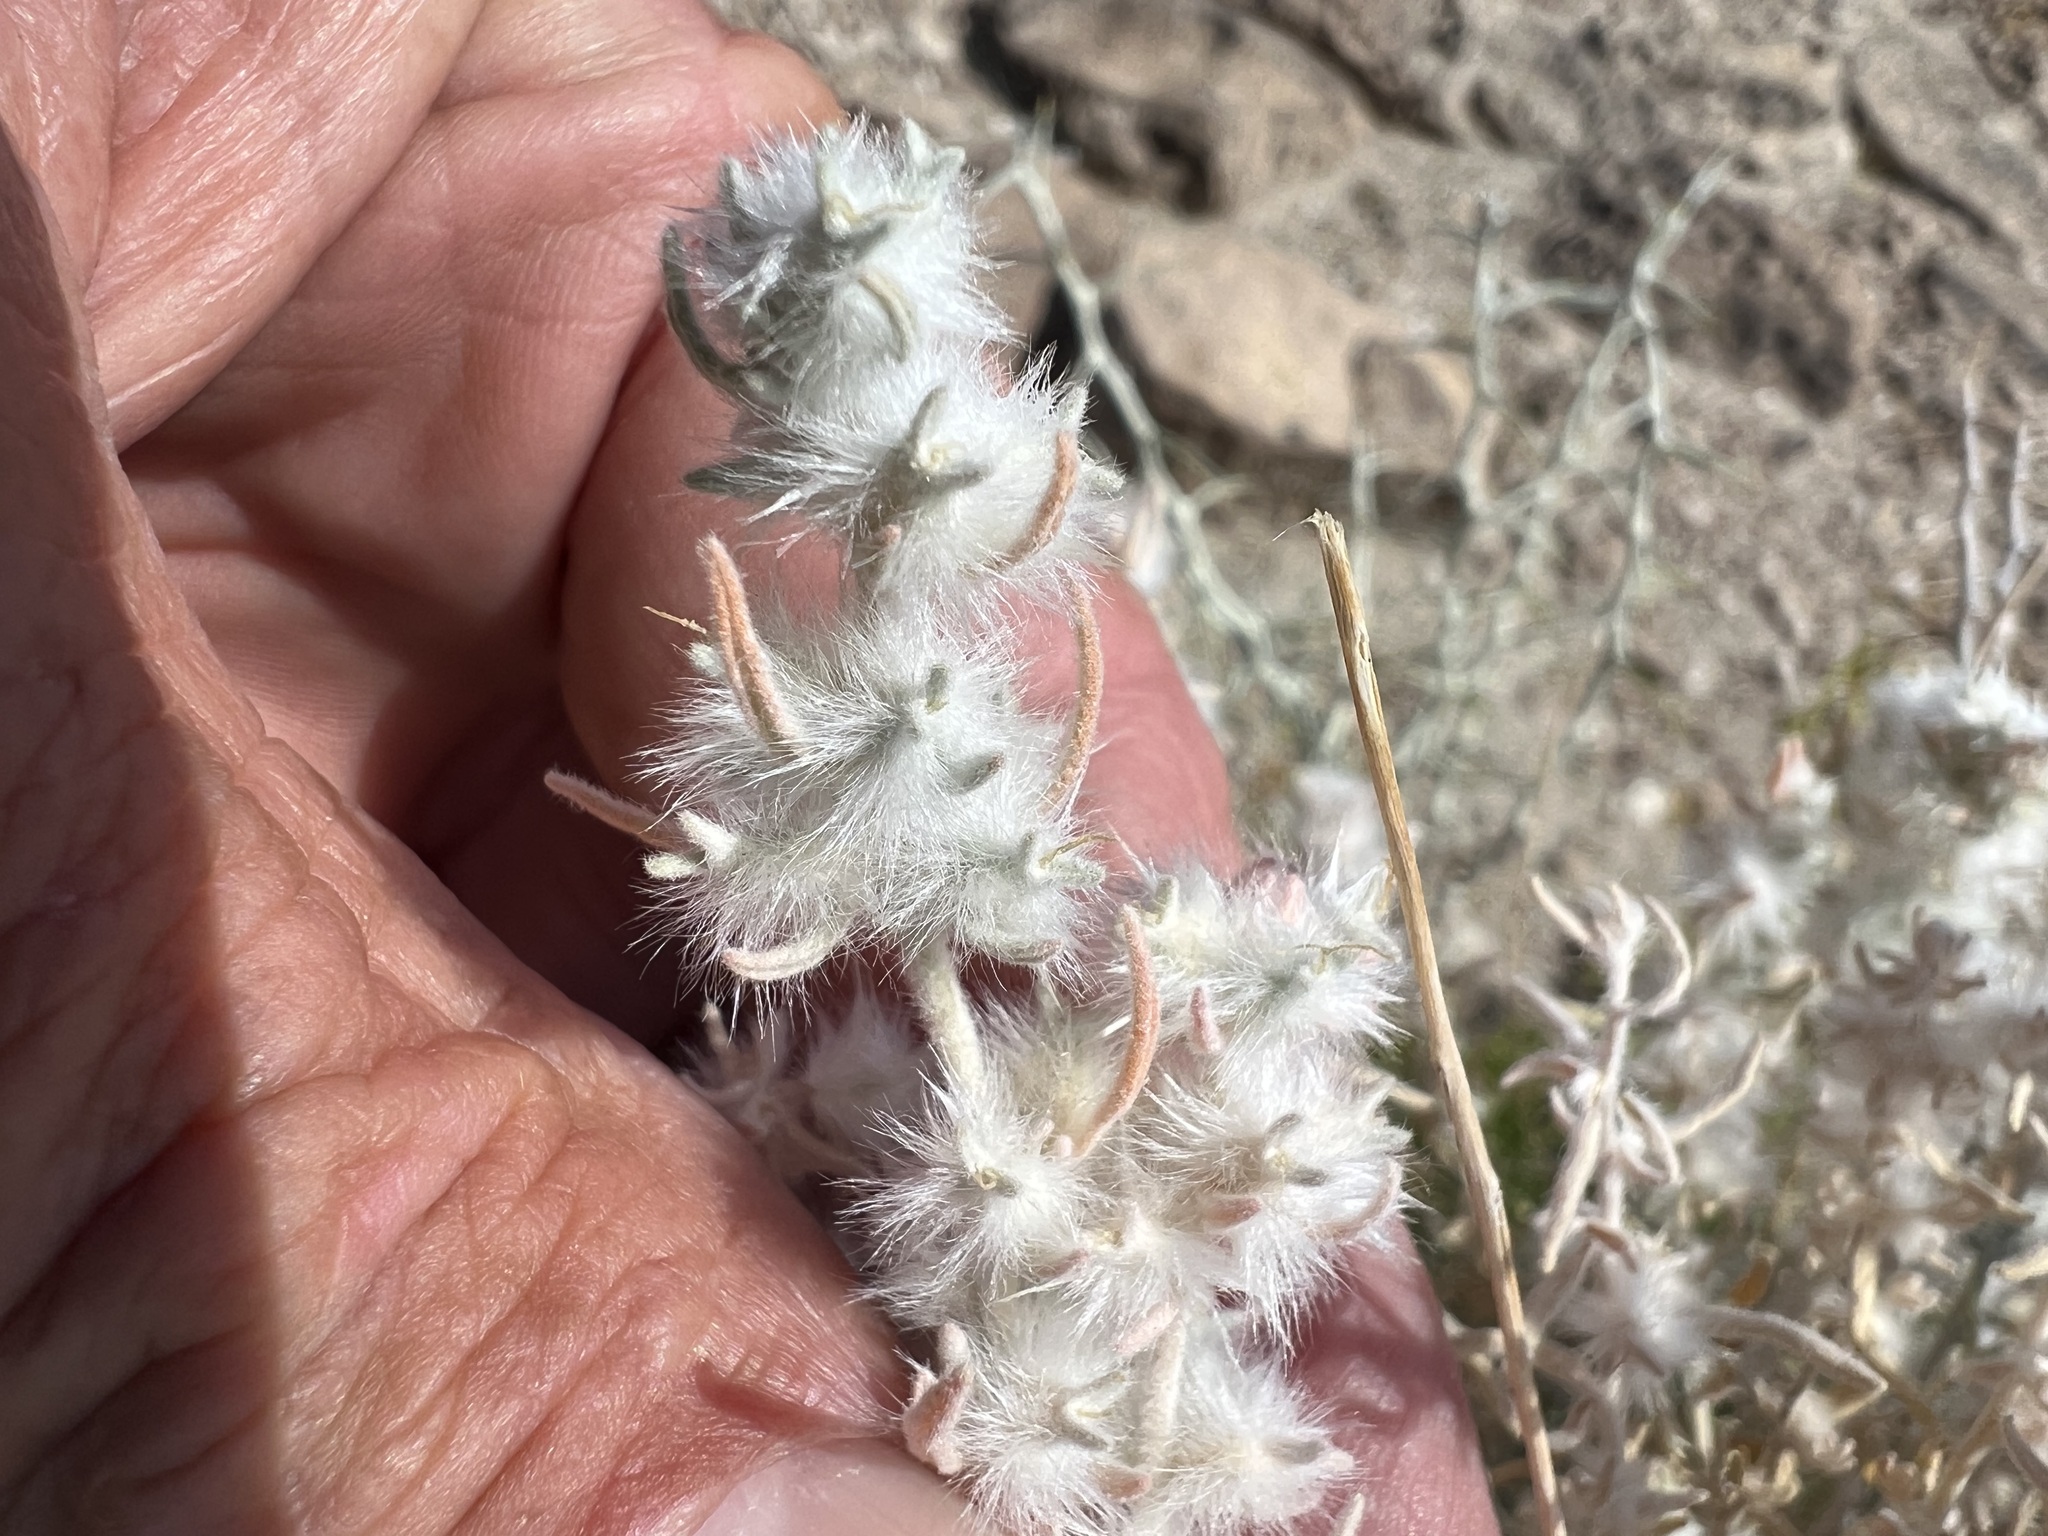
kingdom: Plantae
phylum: Tracheophyta
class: Magnoliopsida
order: Caryophyllales
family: Amaranthaceae
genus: Krascheninnikovia
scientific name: Krascheninnikovia lanata
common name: Winterfat
